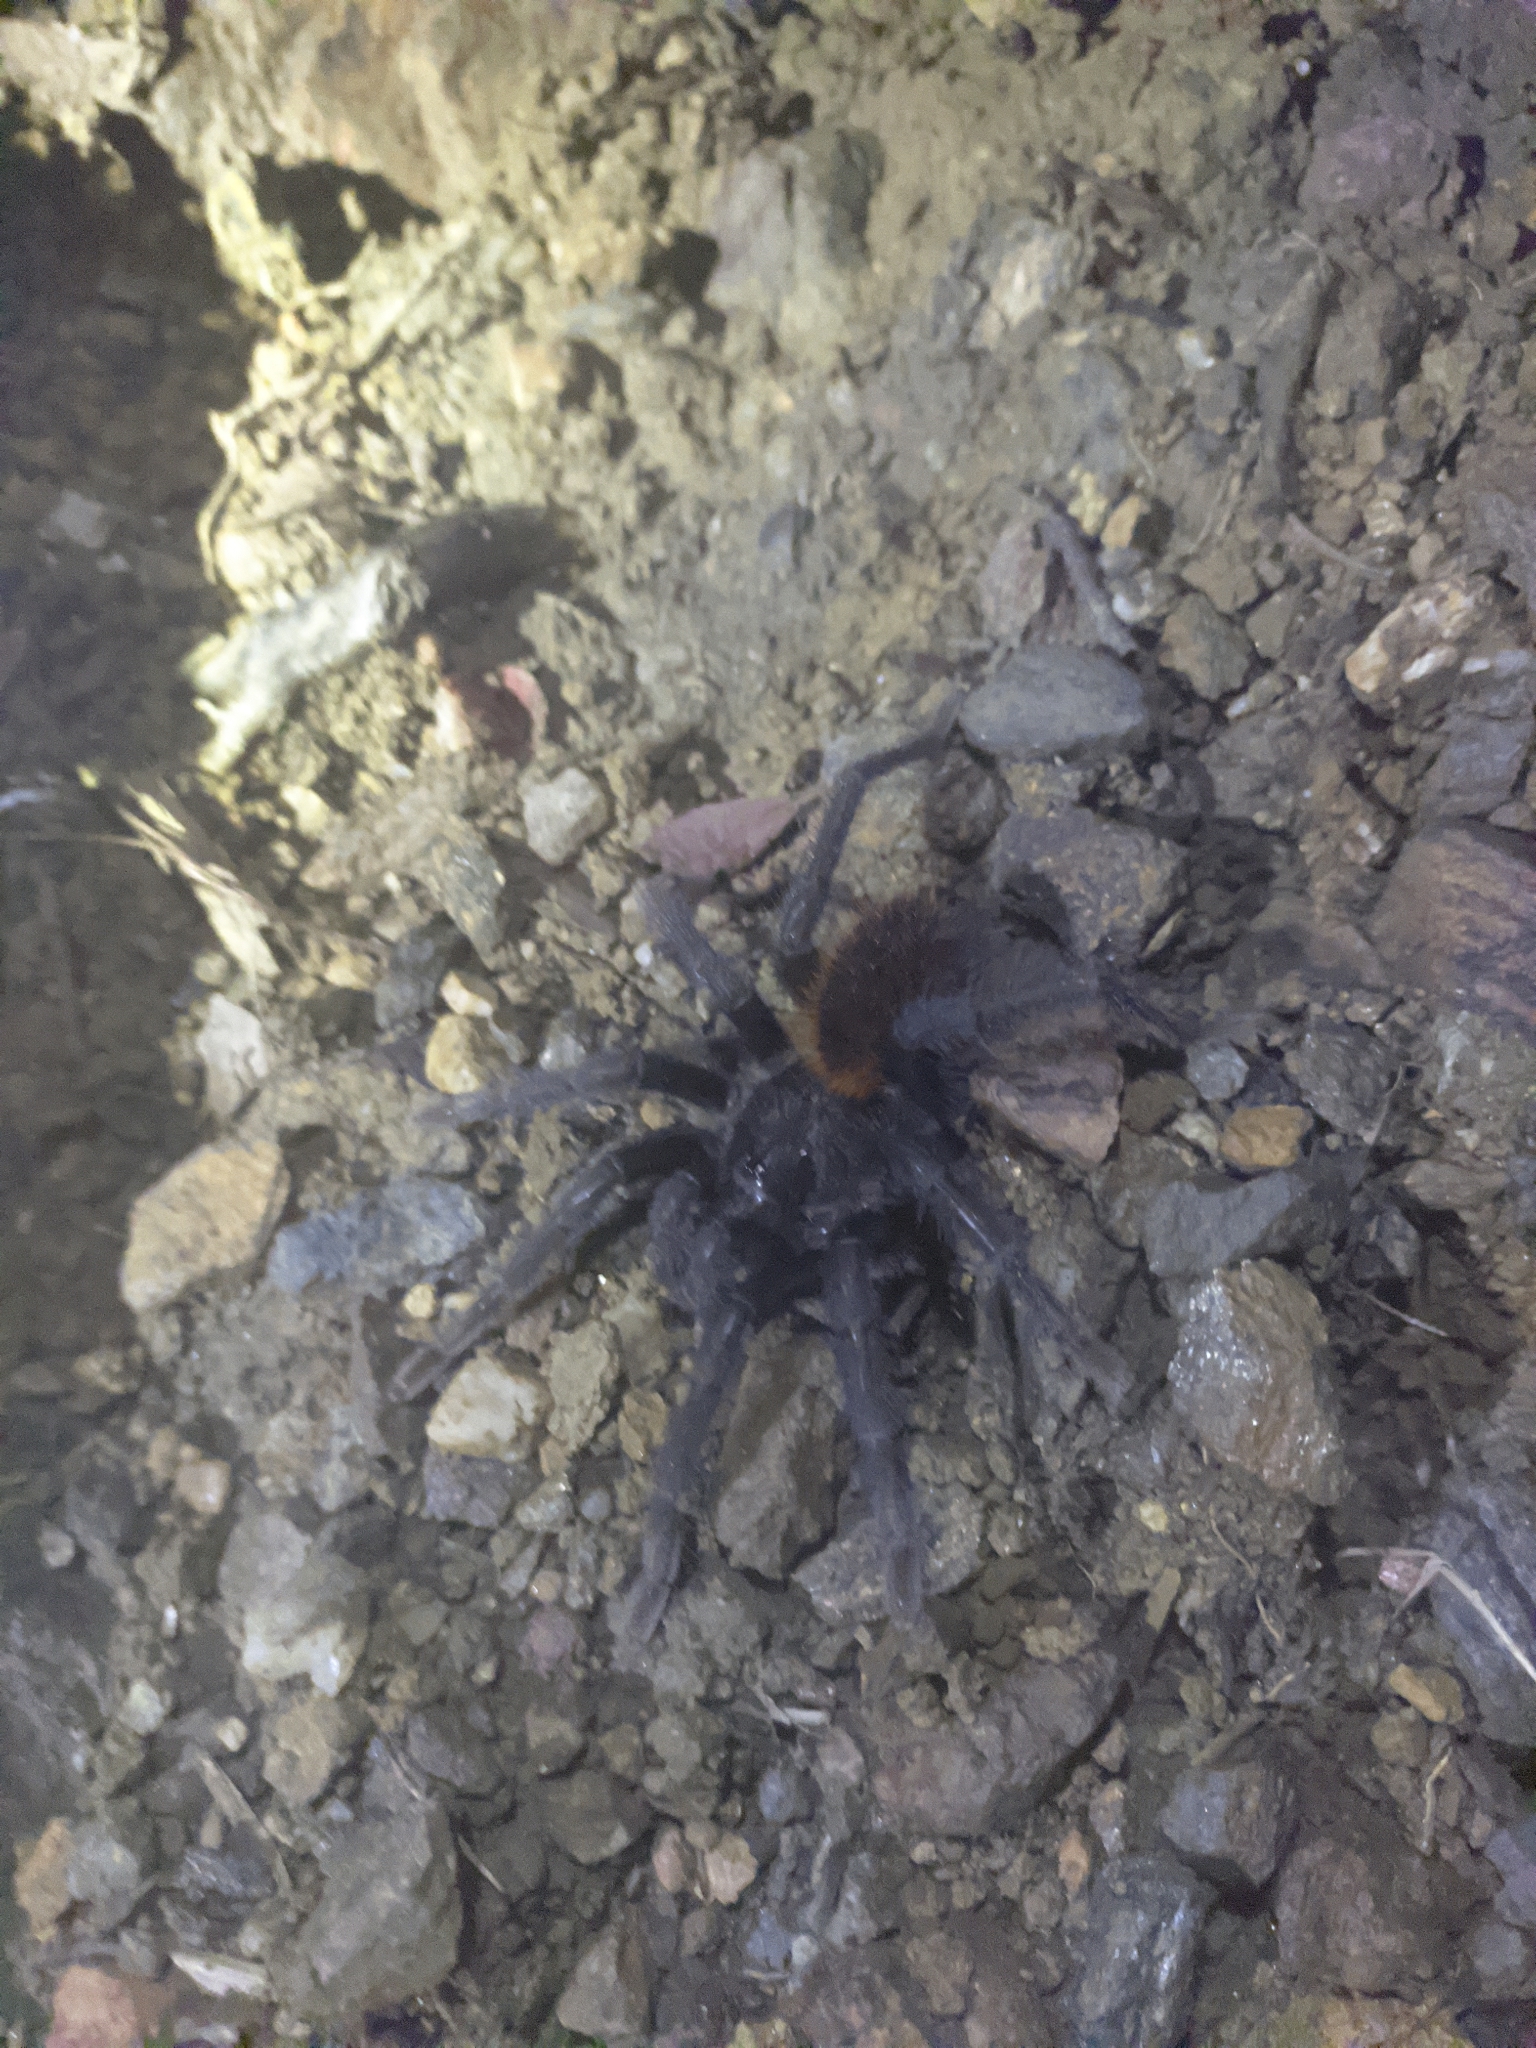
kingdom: Animalia
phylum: Arthropoda
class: Arachnida
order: Araneae
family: Theraphosidae
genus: Kankuamo
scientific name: Kankuamo marquezi
